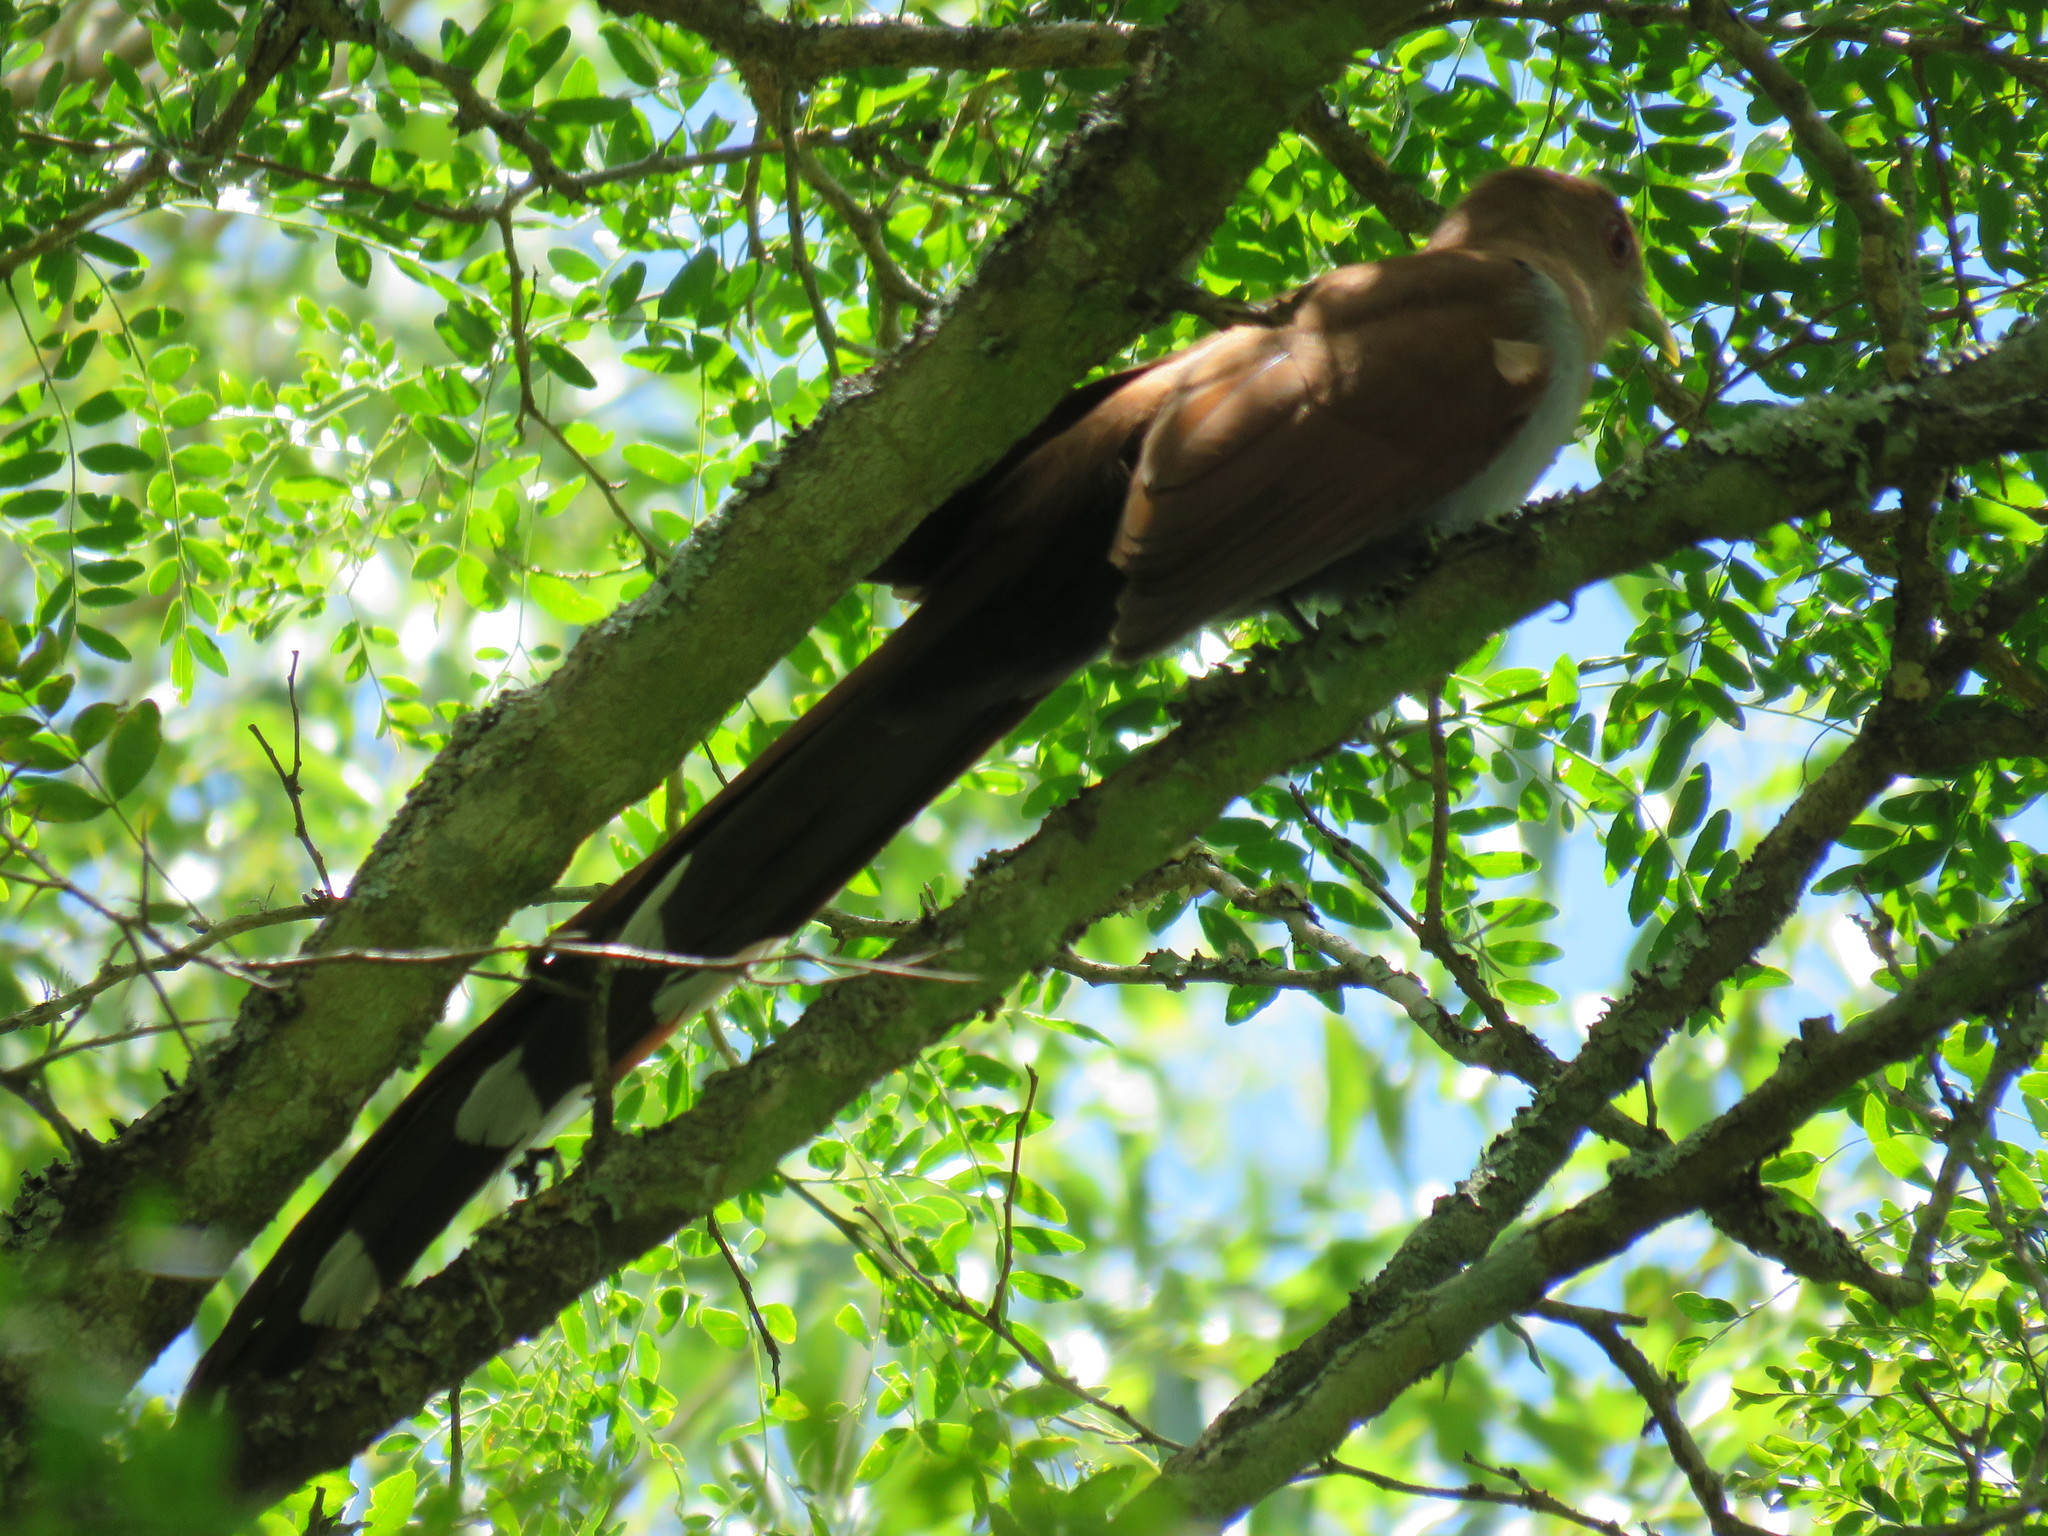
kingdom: Animalia
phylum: Chordata
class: Aves
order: Cuculiformes
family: Cuculidae
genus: Piaya
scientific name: Piaya cayana
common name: Squirrel cuckoo
